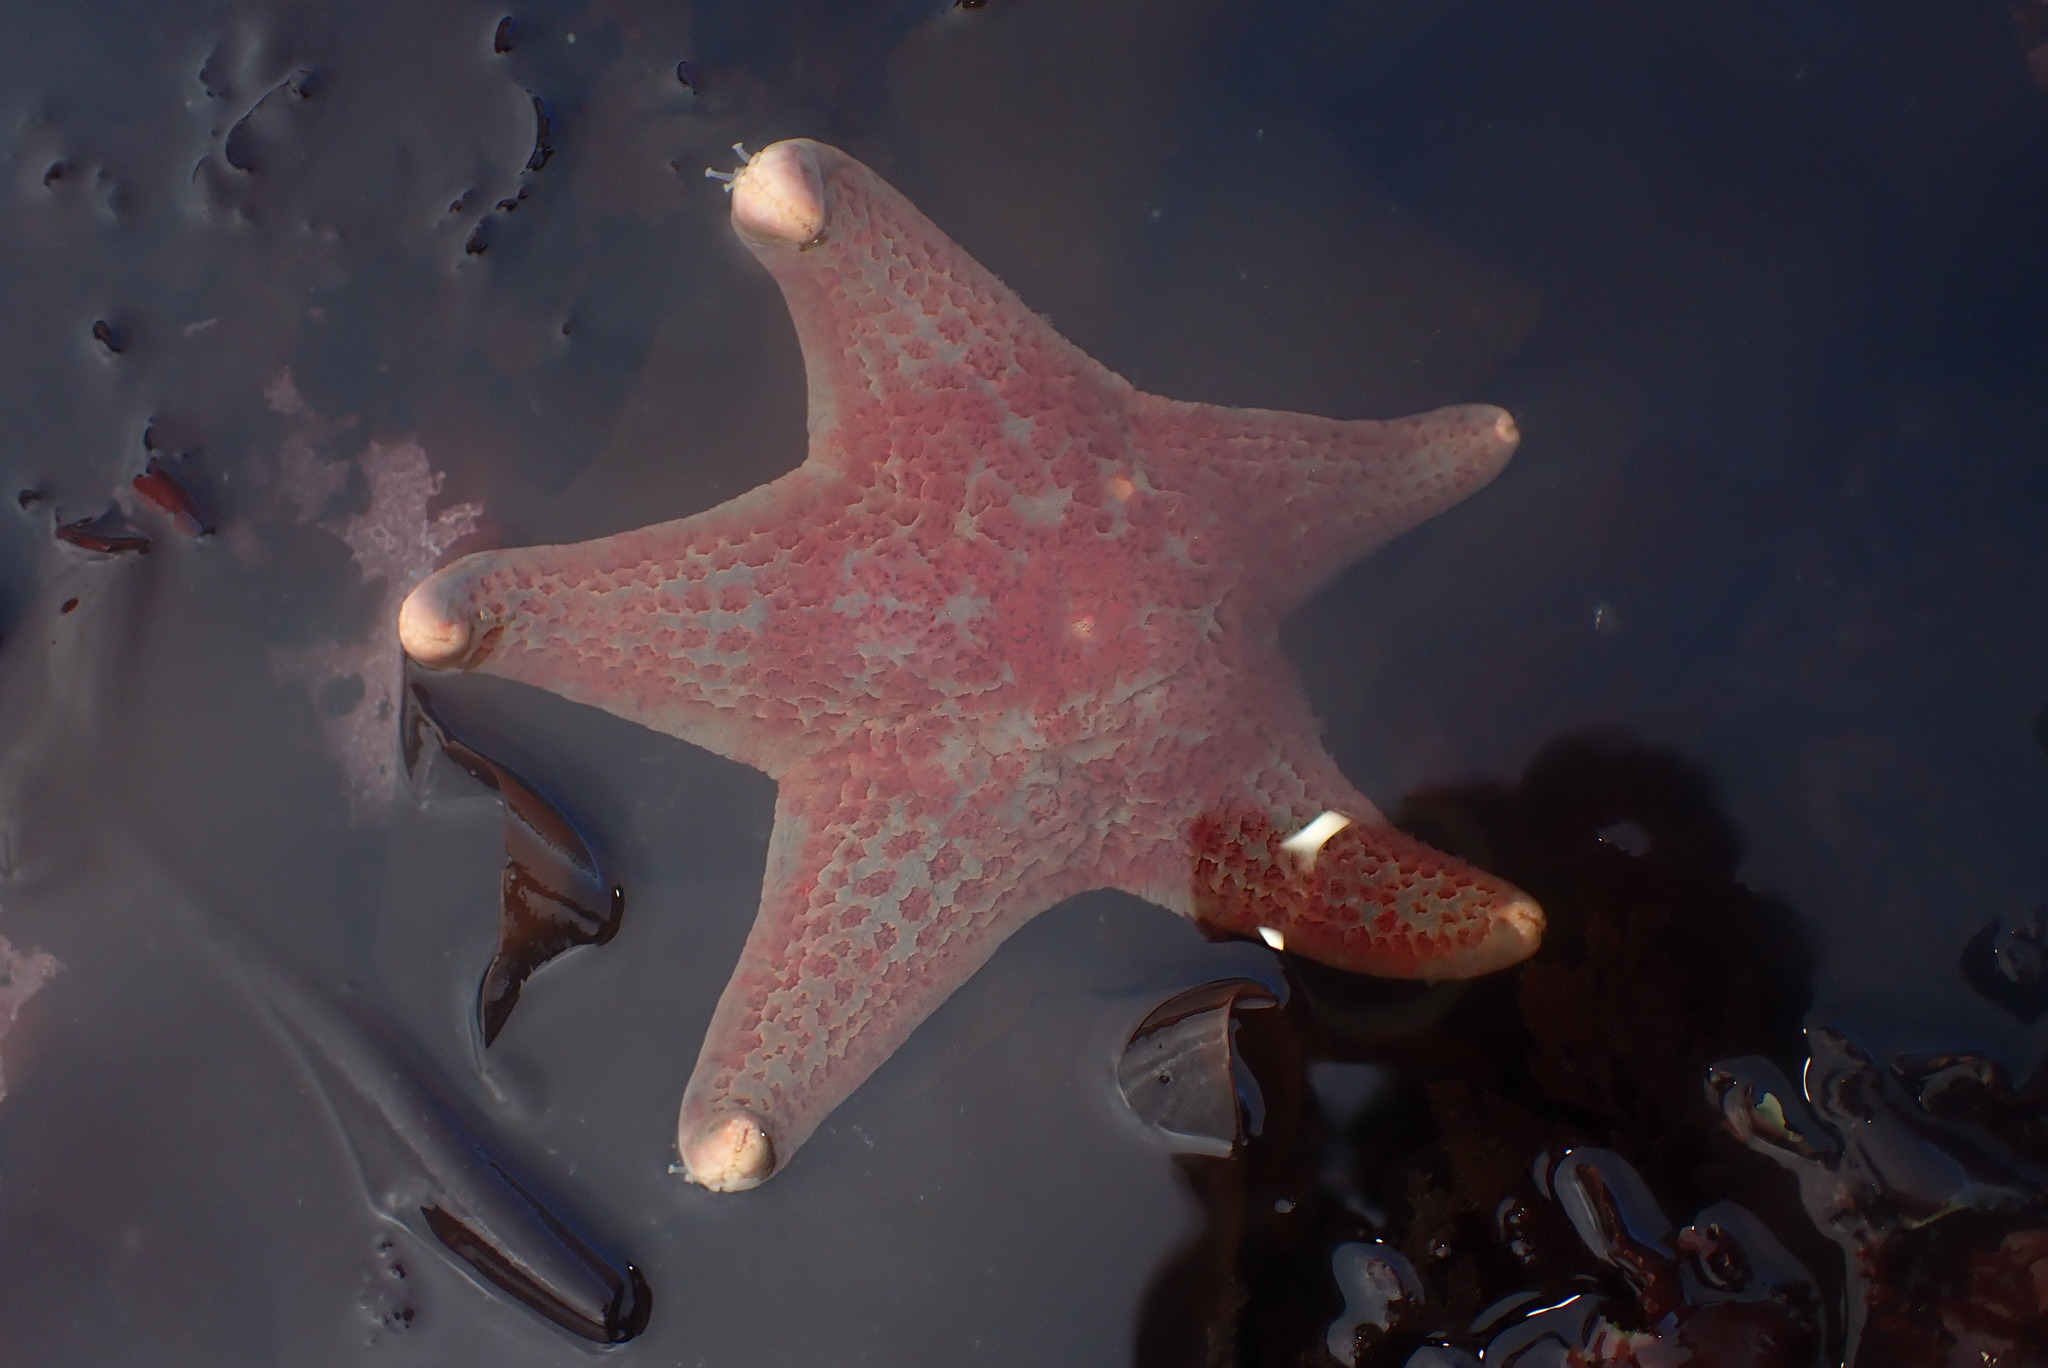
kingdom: Animalia
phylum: Echinodermata
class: Asteroidea
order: Valvatida
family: Asteropseidae
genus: Dermasterias
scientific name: Dermasterias imbricata
